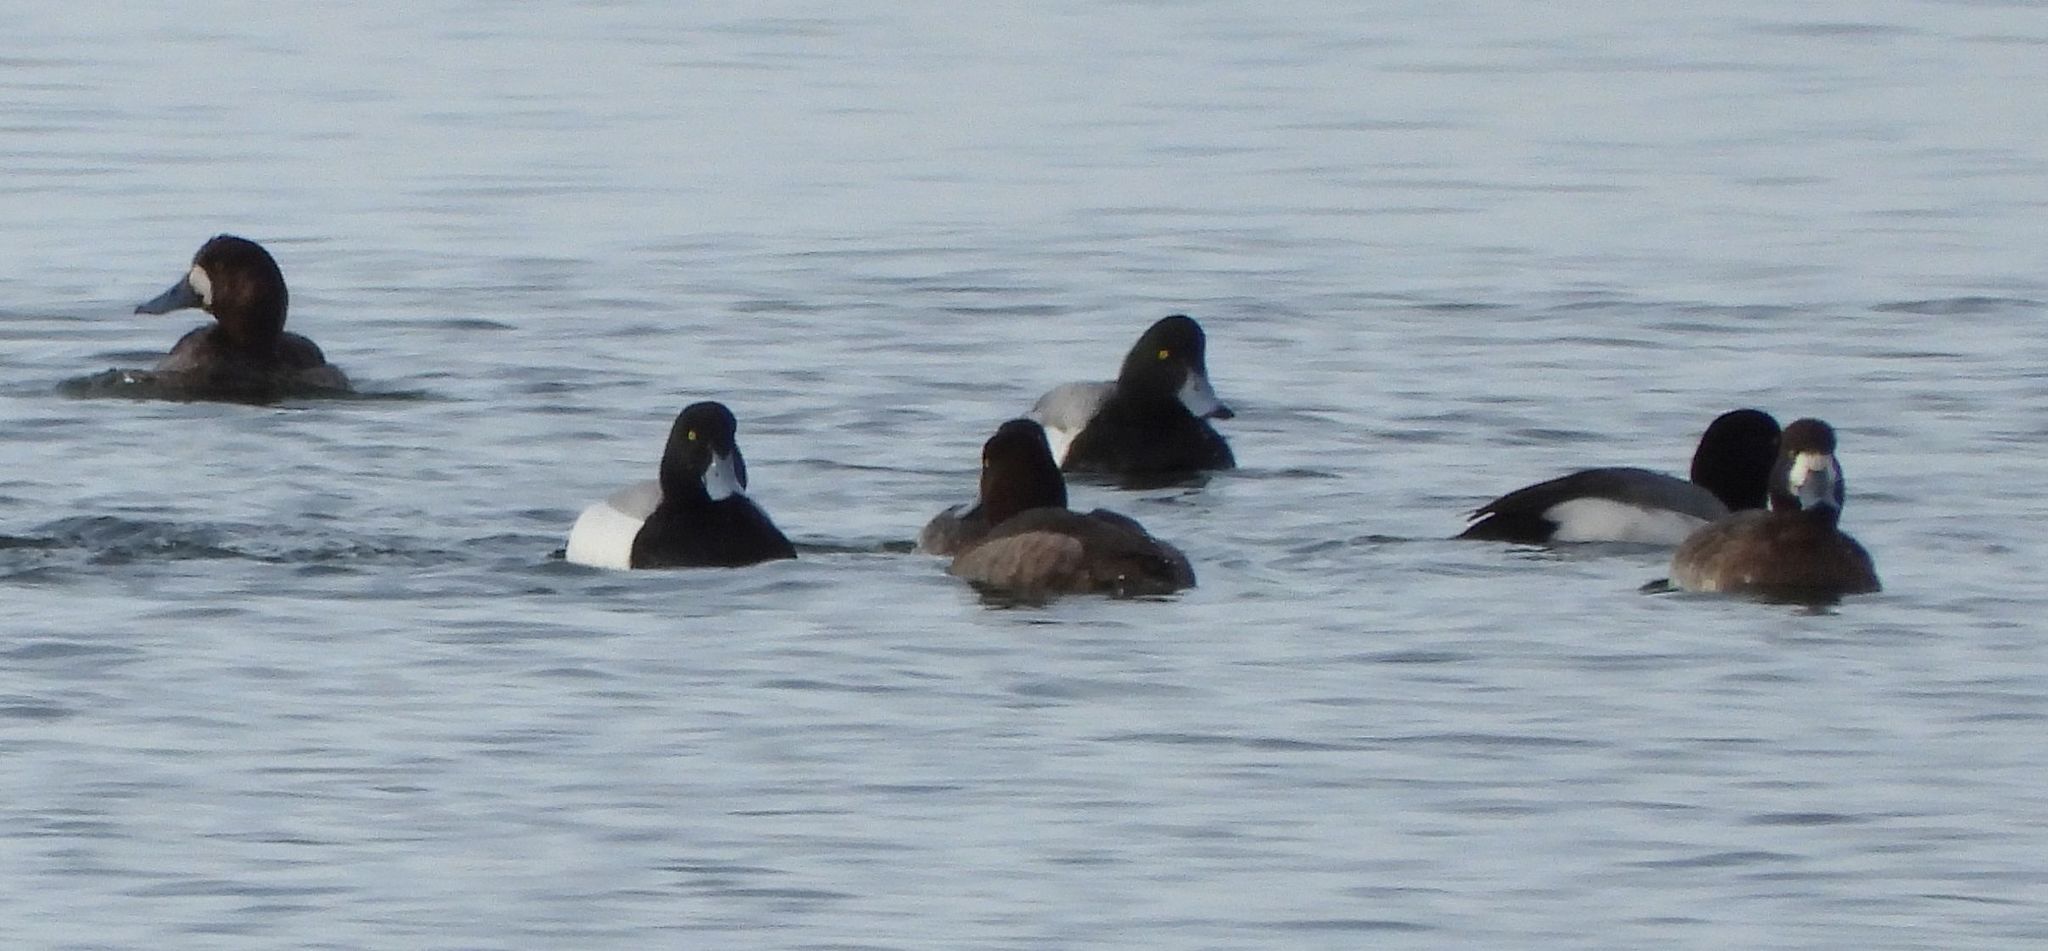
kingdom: Animalia
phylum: Chordata
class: Aves
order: Anseriformes
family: Anatidae
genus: Aythya
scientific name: Aythya marila
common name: Greater scaup
